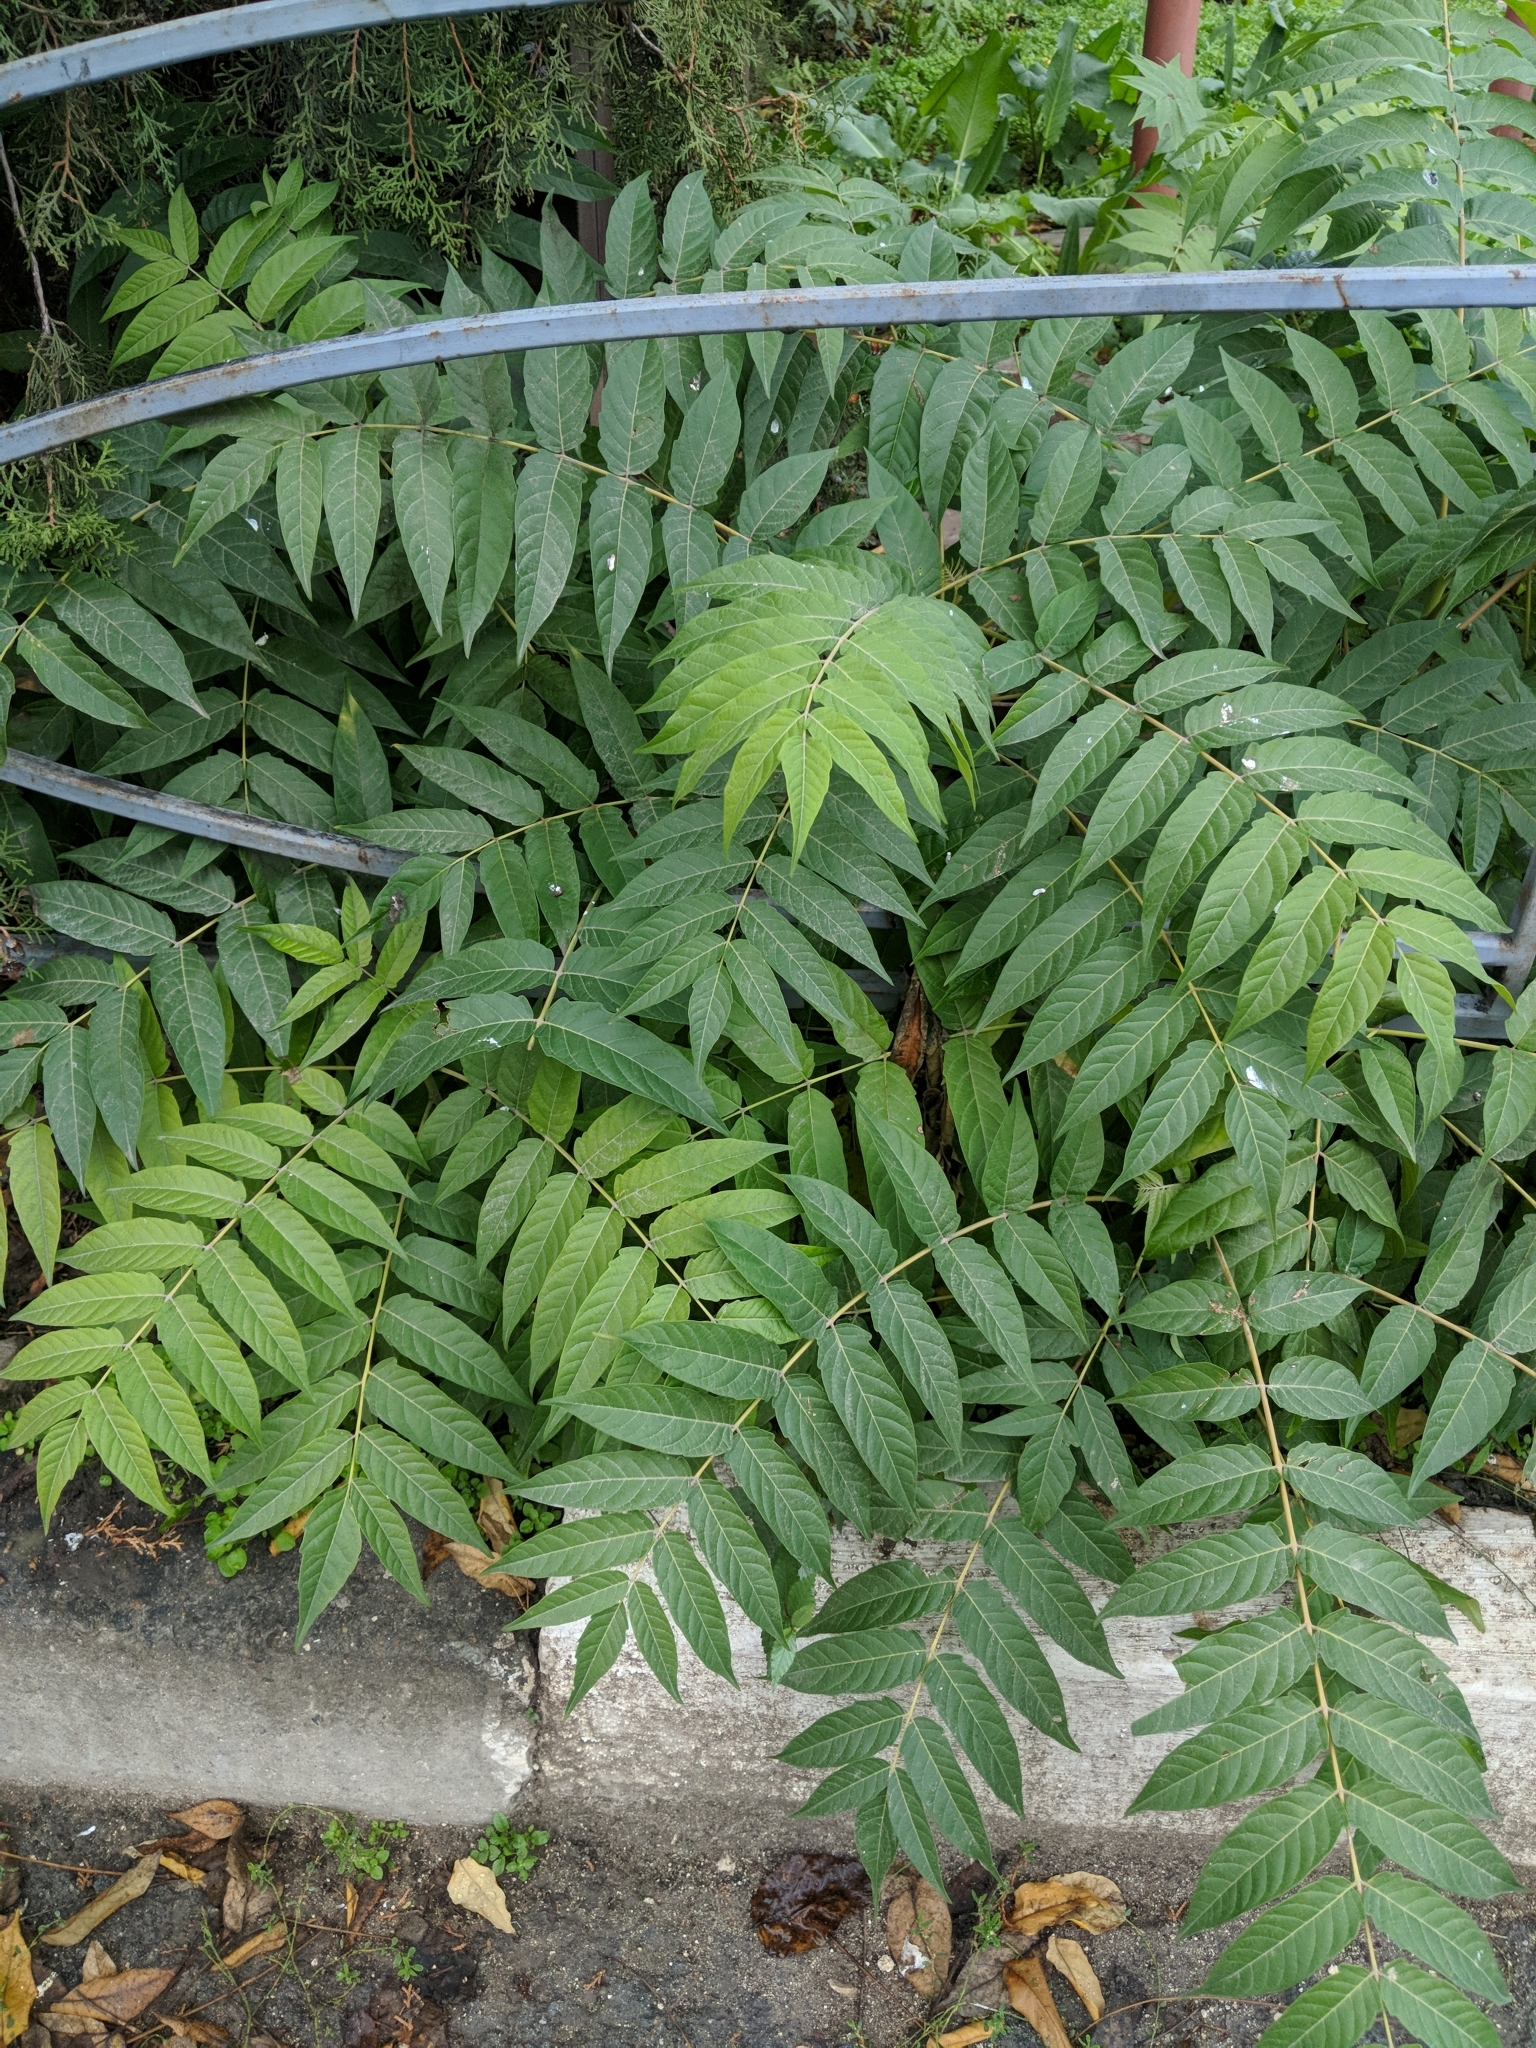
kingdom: Plantae
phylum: Tracheophyta
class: Magnoliopsida
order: Sapindales
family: Simaroubaceae
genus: Ailanthus
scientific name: Ailanthus altissima
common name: Tree-of-heaven
